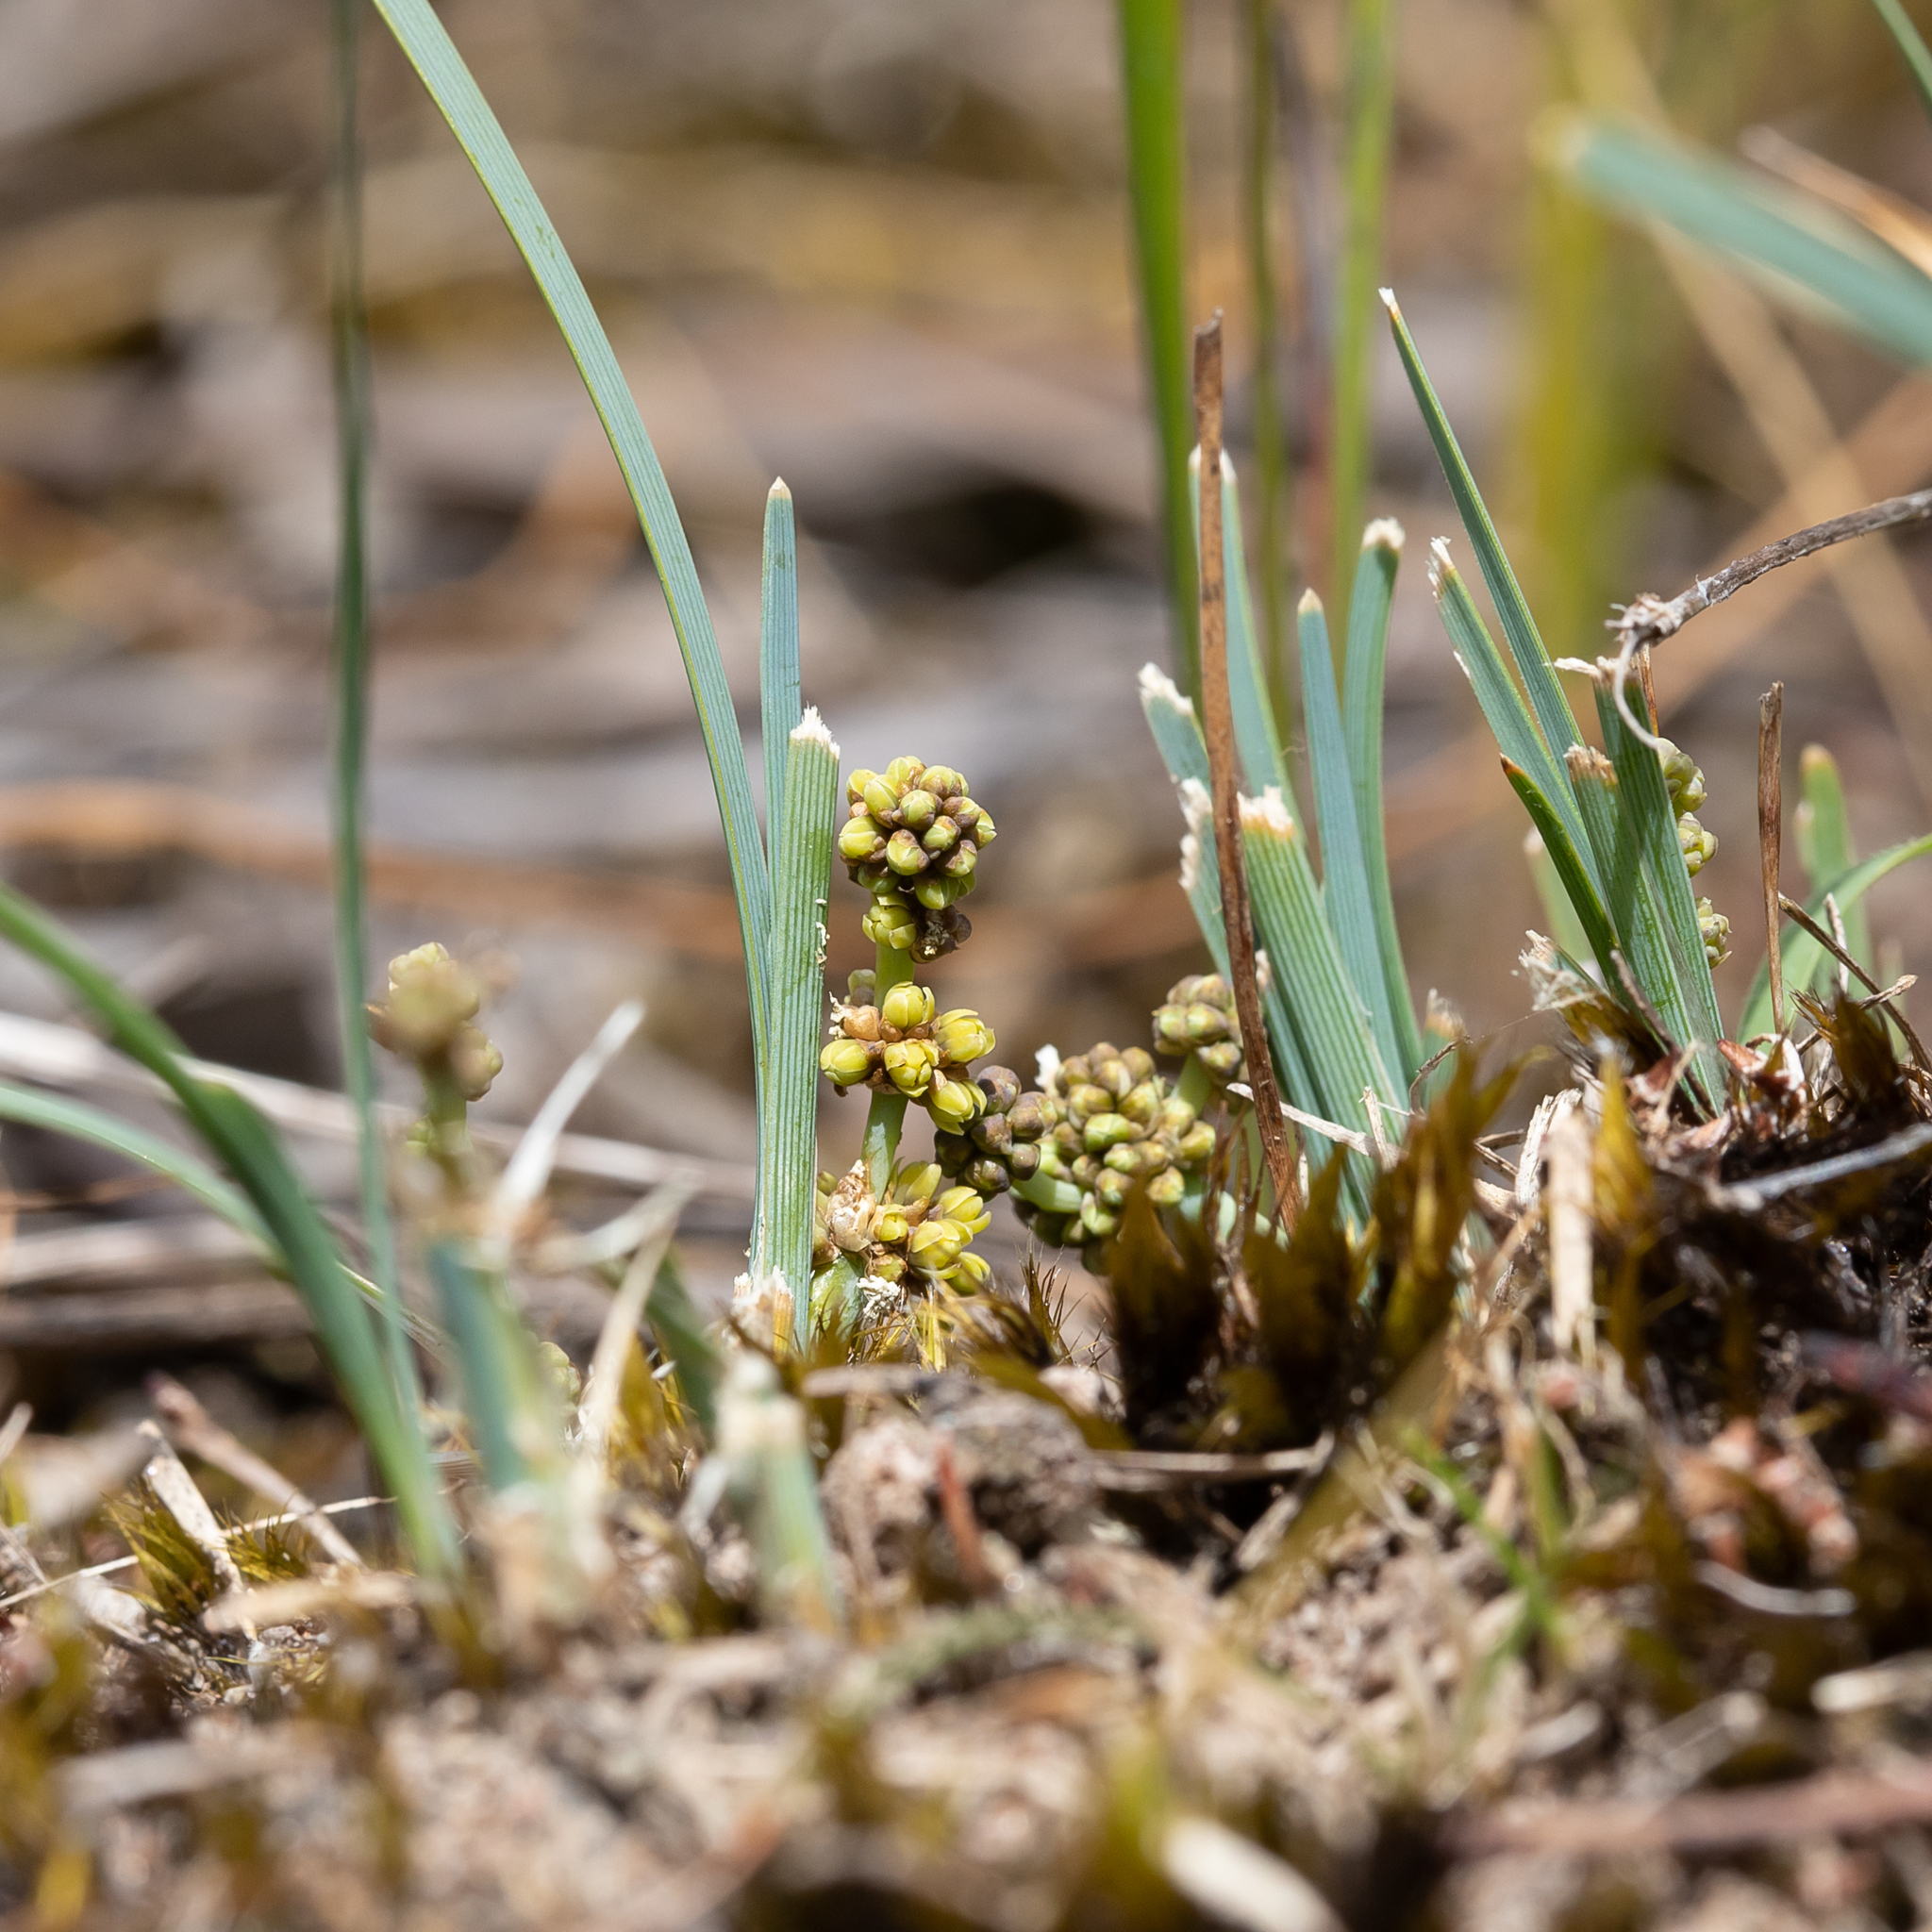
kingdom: Plantae
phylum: Tracheophyta
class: Liliopsida
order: Asparagales
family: Asparagaceae
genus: Lomandra
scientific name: Lomandra nana
